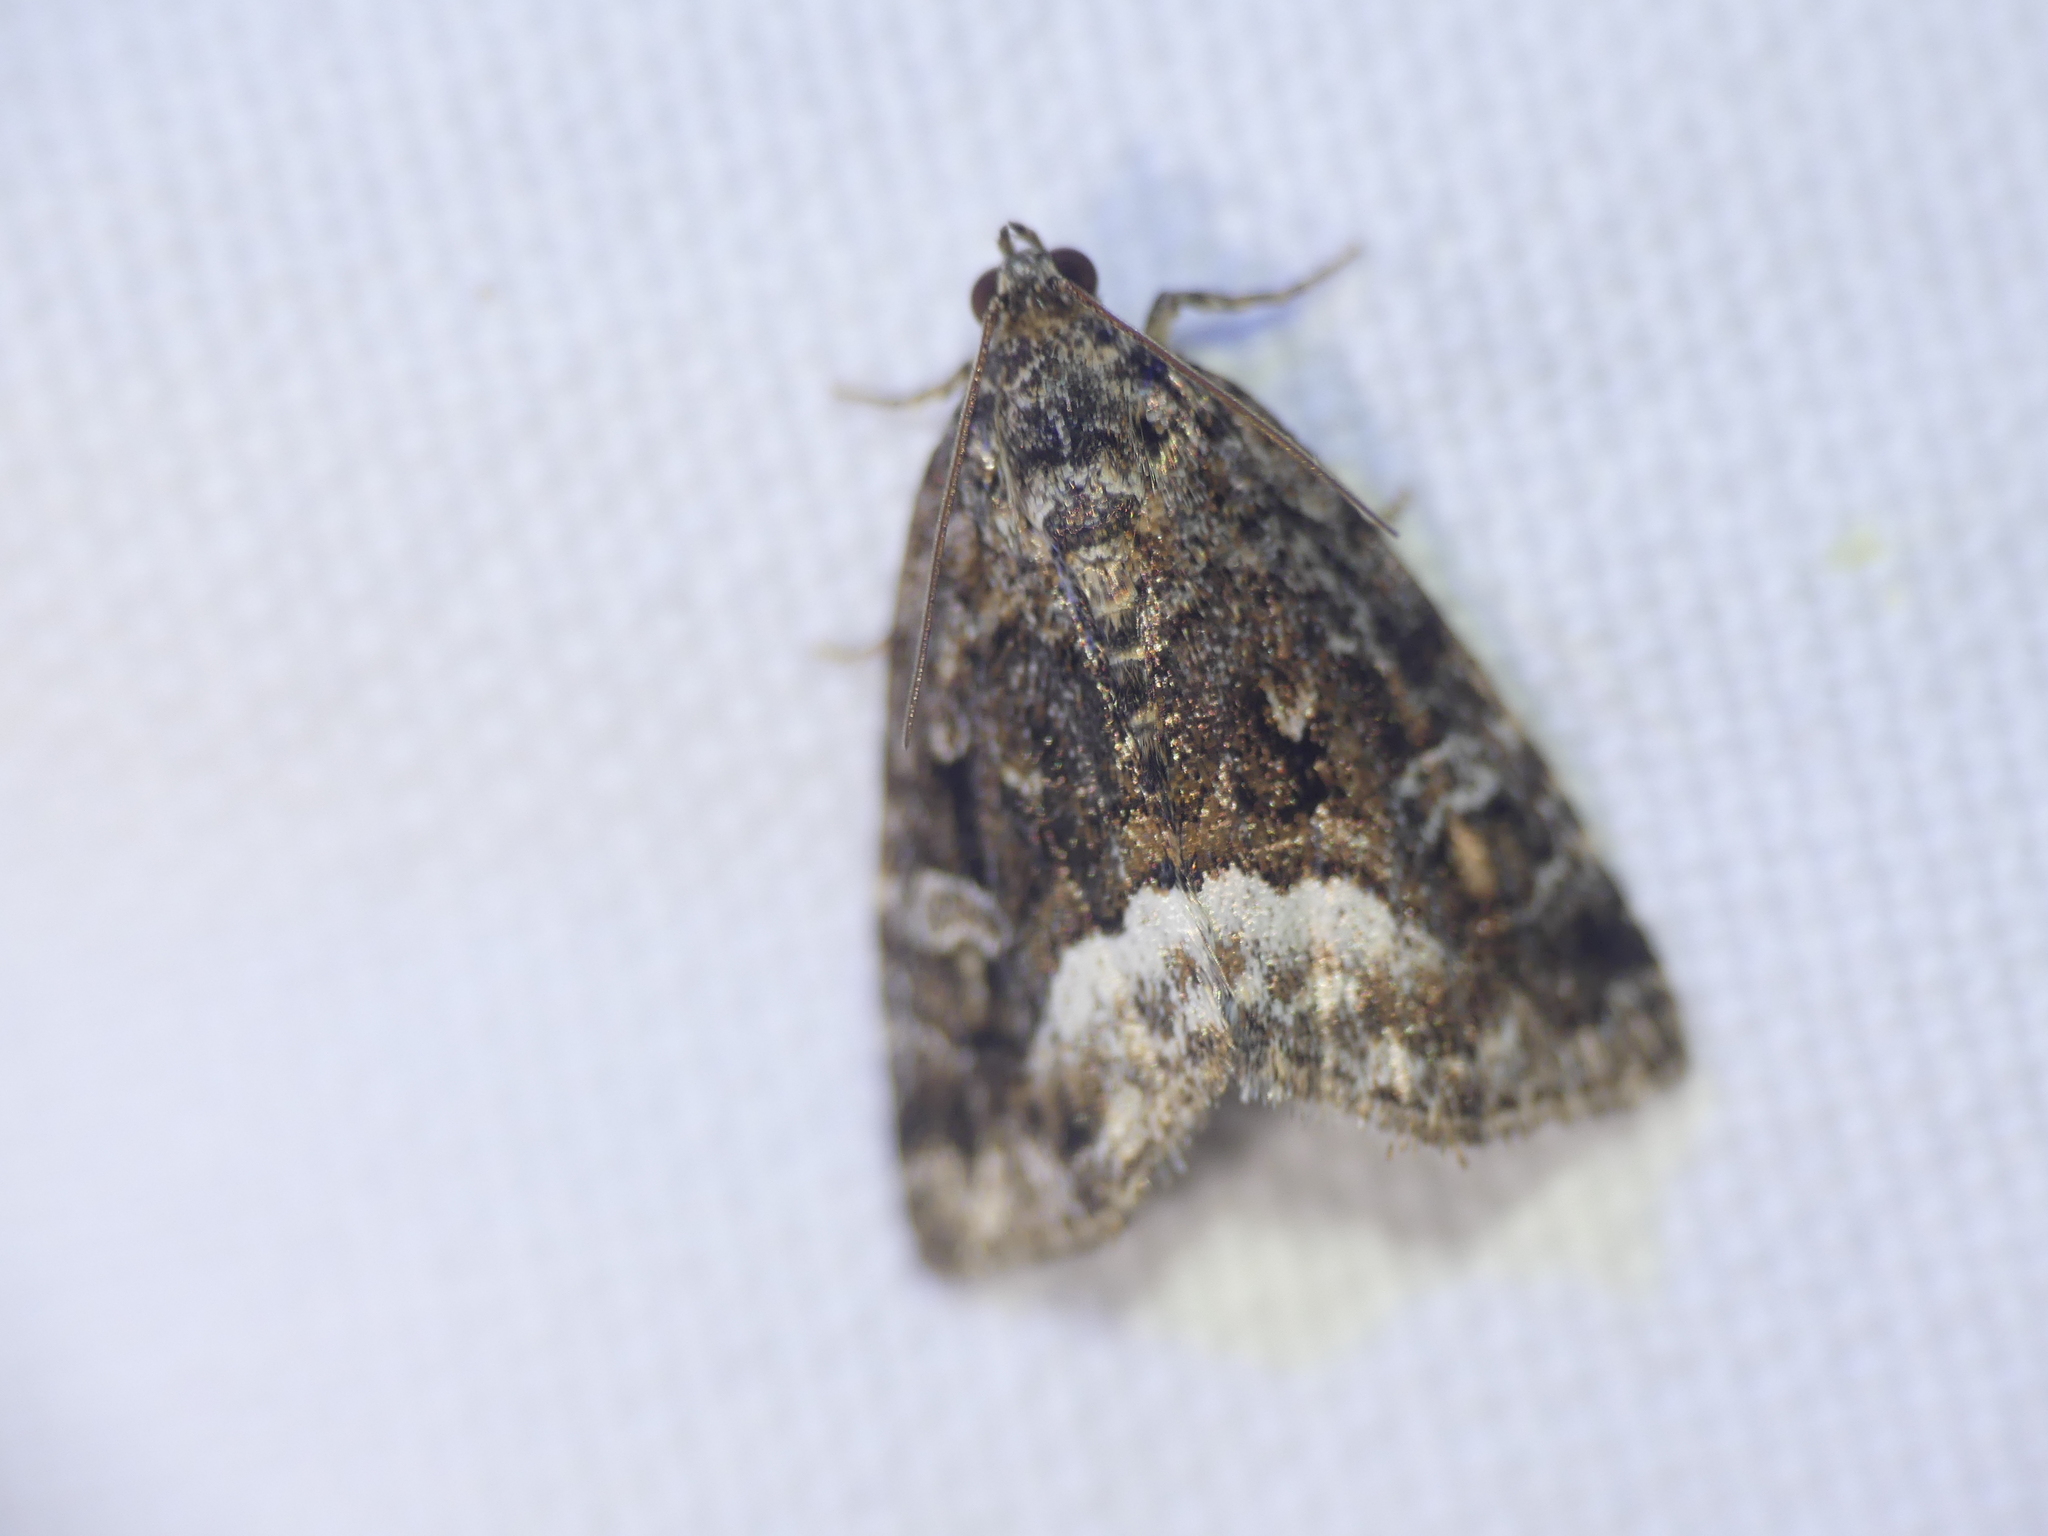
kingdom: Animalia
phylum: Arthropoda
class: Insecta
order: Lepidoptera
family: Noctuidae
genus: Deltote
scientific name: Deltote pygarga
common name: Marbled white spot
